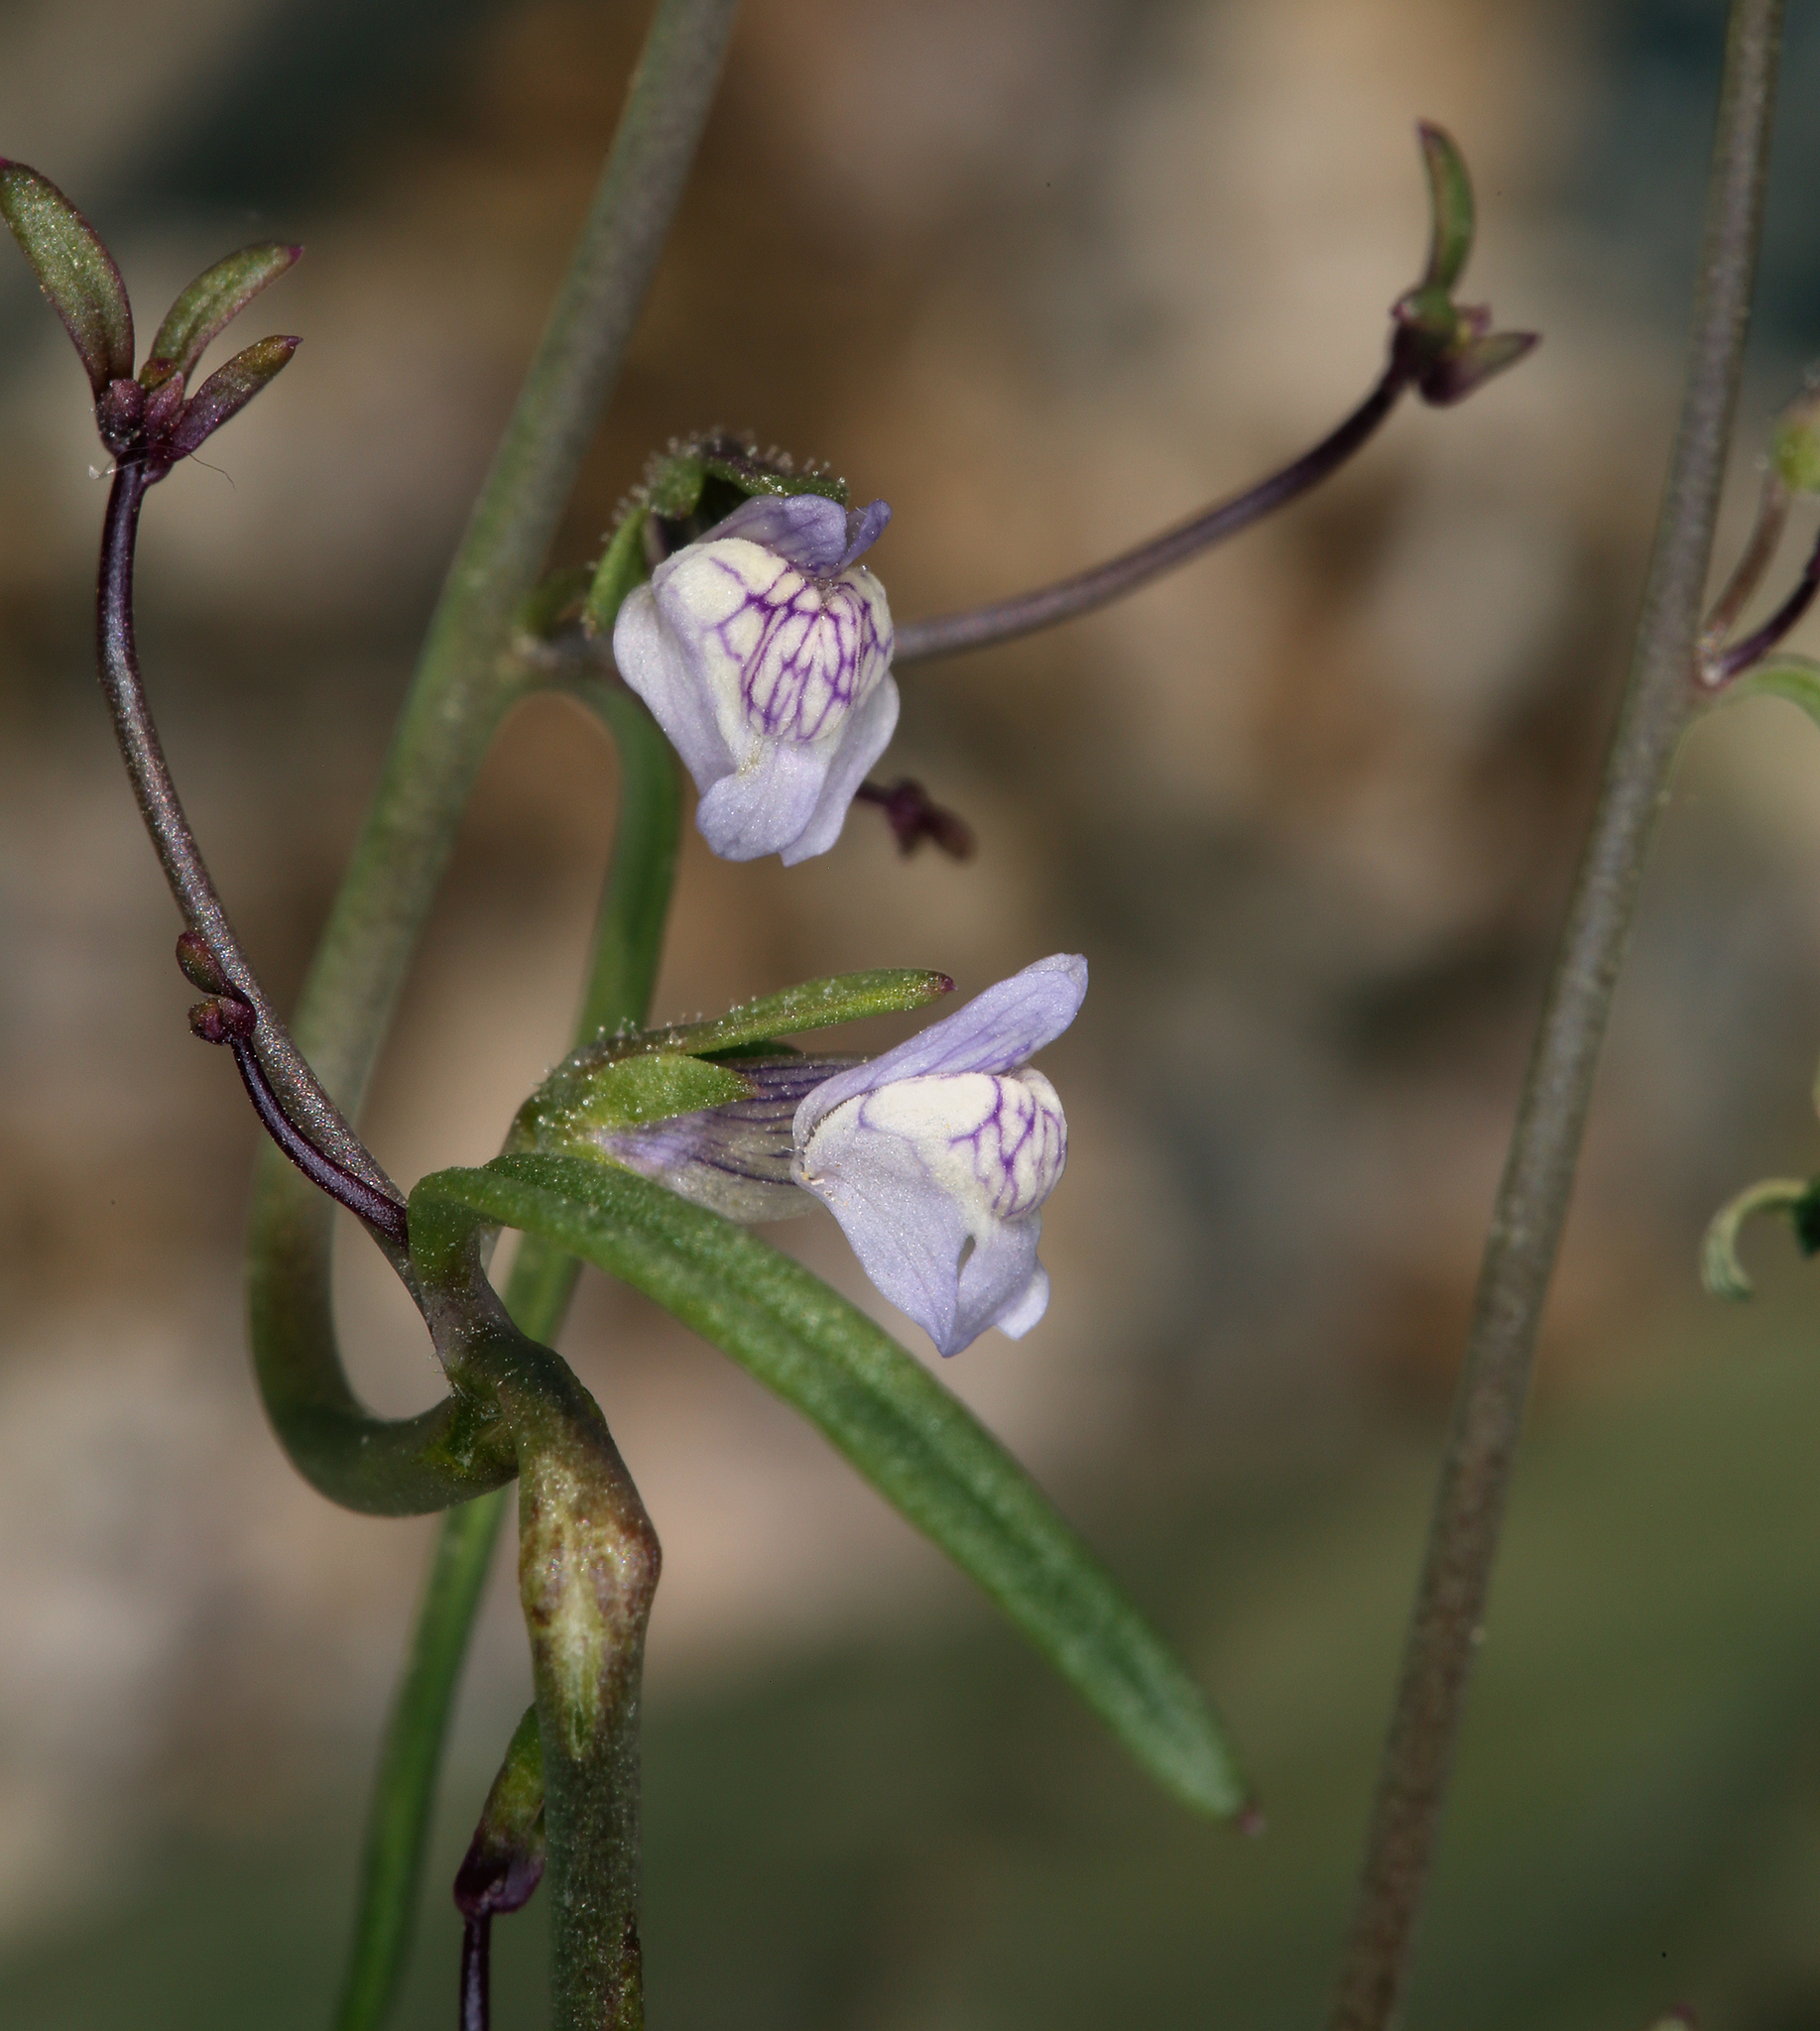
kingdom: Plantae
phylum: Tracheophyta
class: Magnoliopsida
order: Lamiales
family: Plantaginaceae
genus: Sairocarpus
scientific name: Sairocarpus kingii
